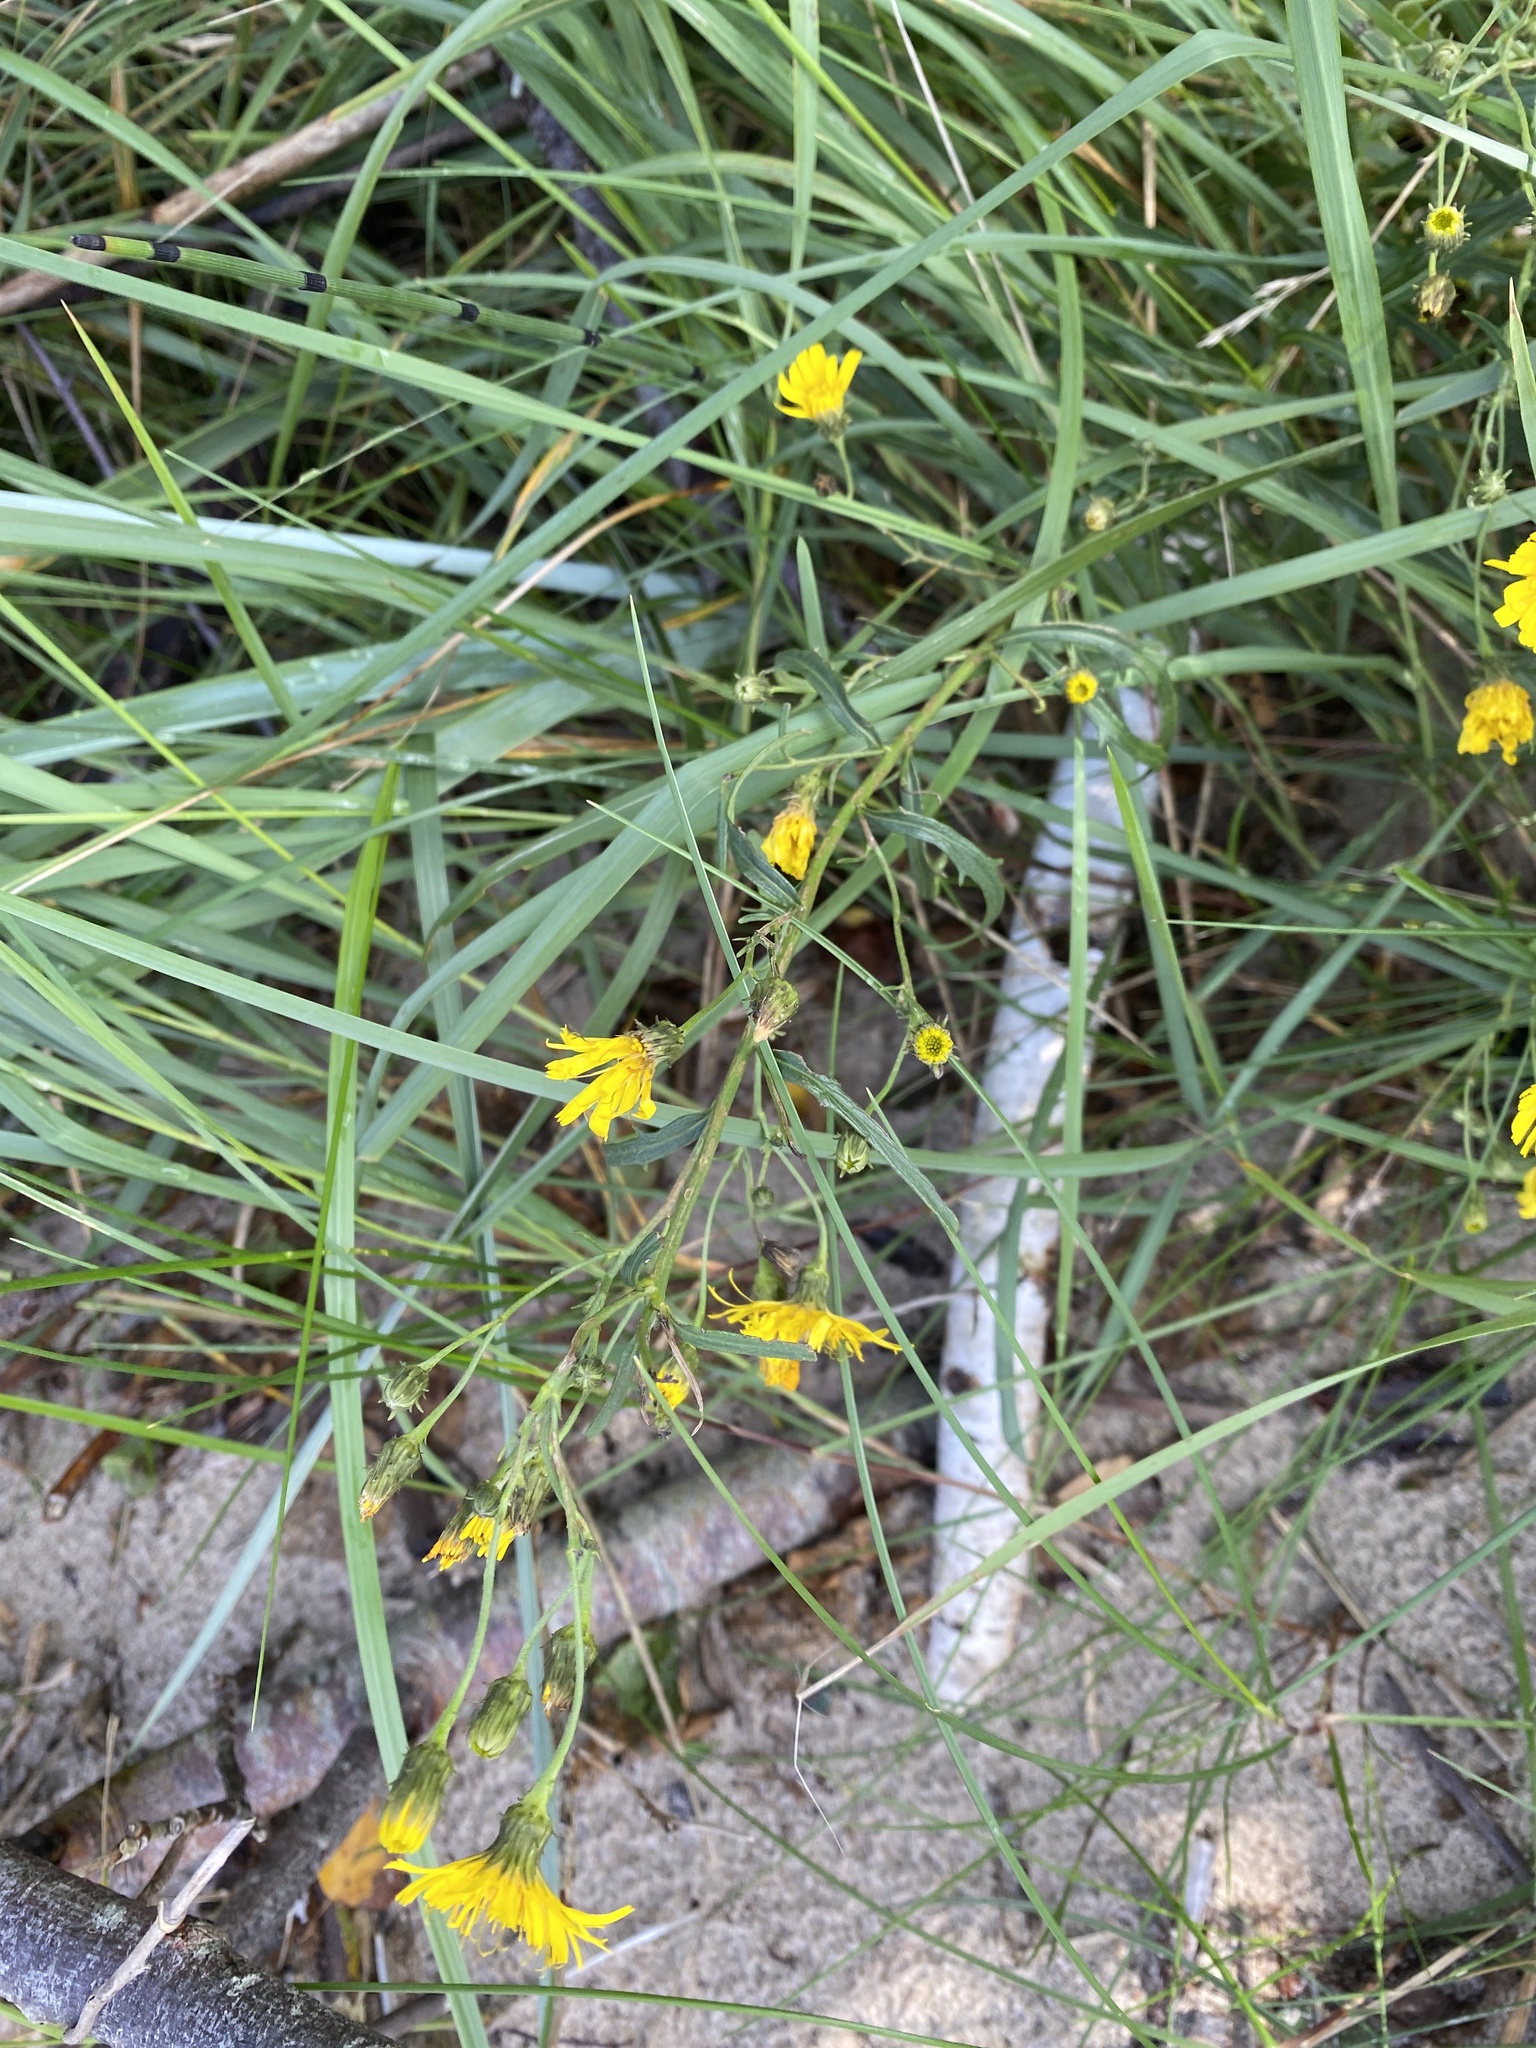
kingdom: Plantae
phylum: Tracheophyta
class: Magnoliopsida
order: Asterales
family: Asteraceae
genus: Hieracium
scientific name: Hieracium umbellatum
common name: Northern hawkweed
